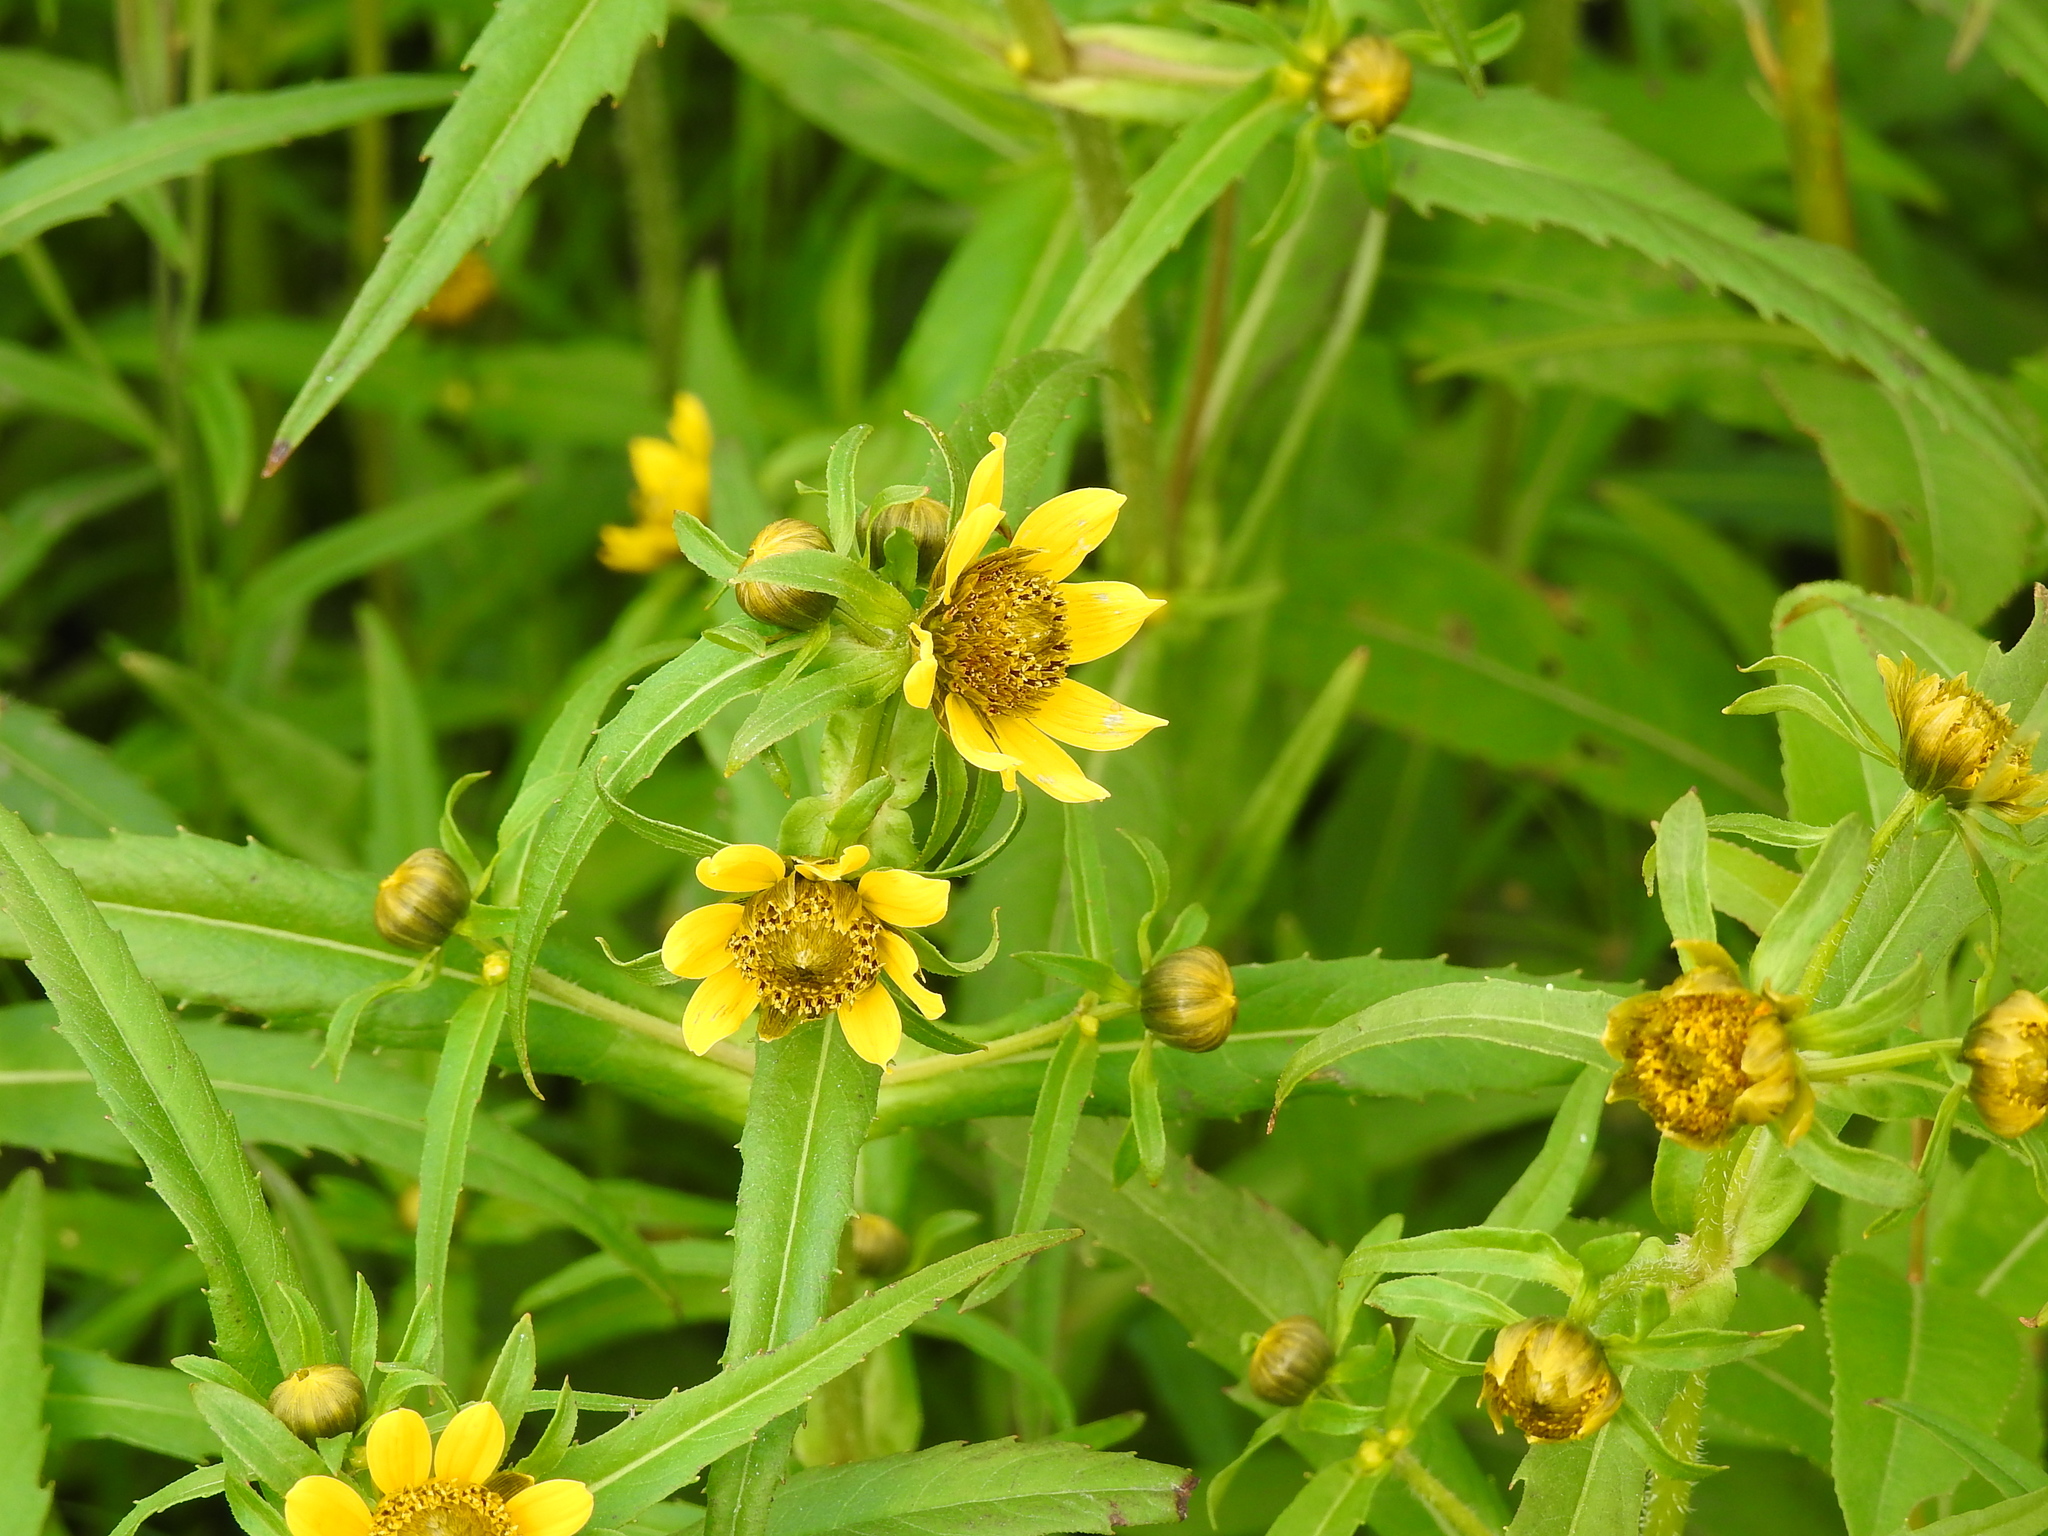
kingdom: Plantae
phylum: Tracheophyta
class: Magnoliopsida
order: Asterales
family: Asteraceae
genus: Bidens
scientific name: Bidens cernua
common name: Nodding bur-marigold
